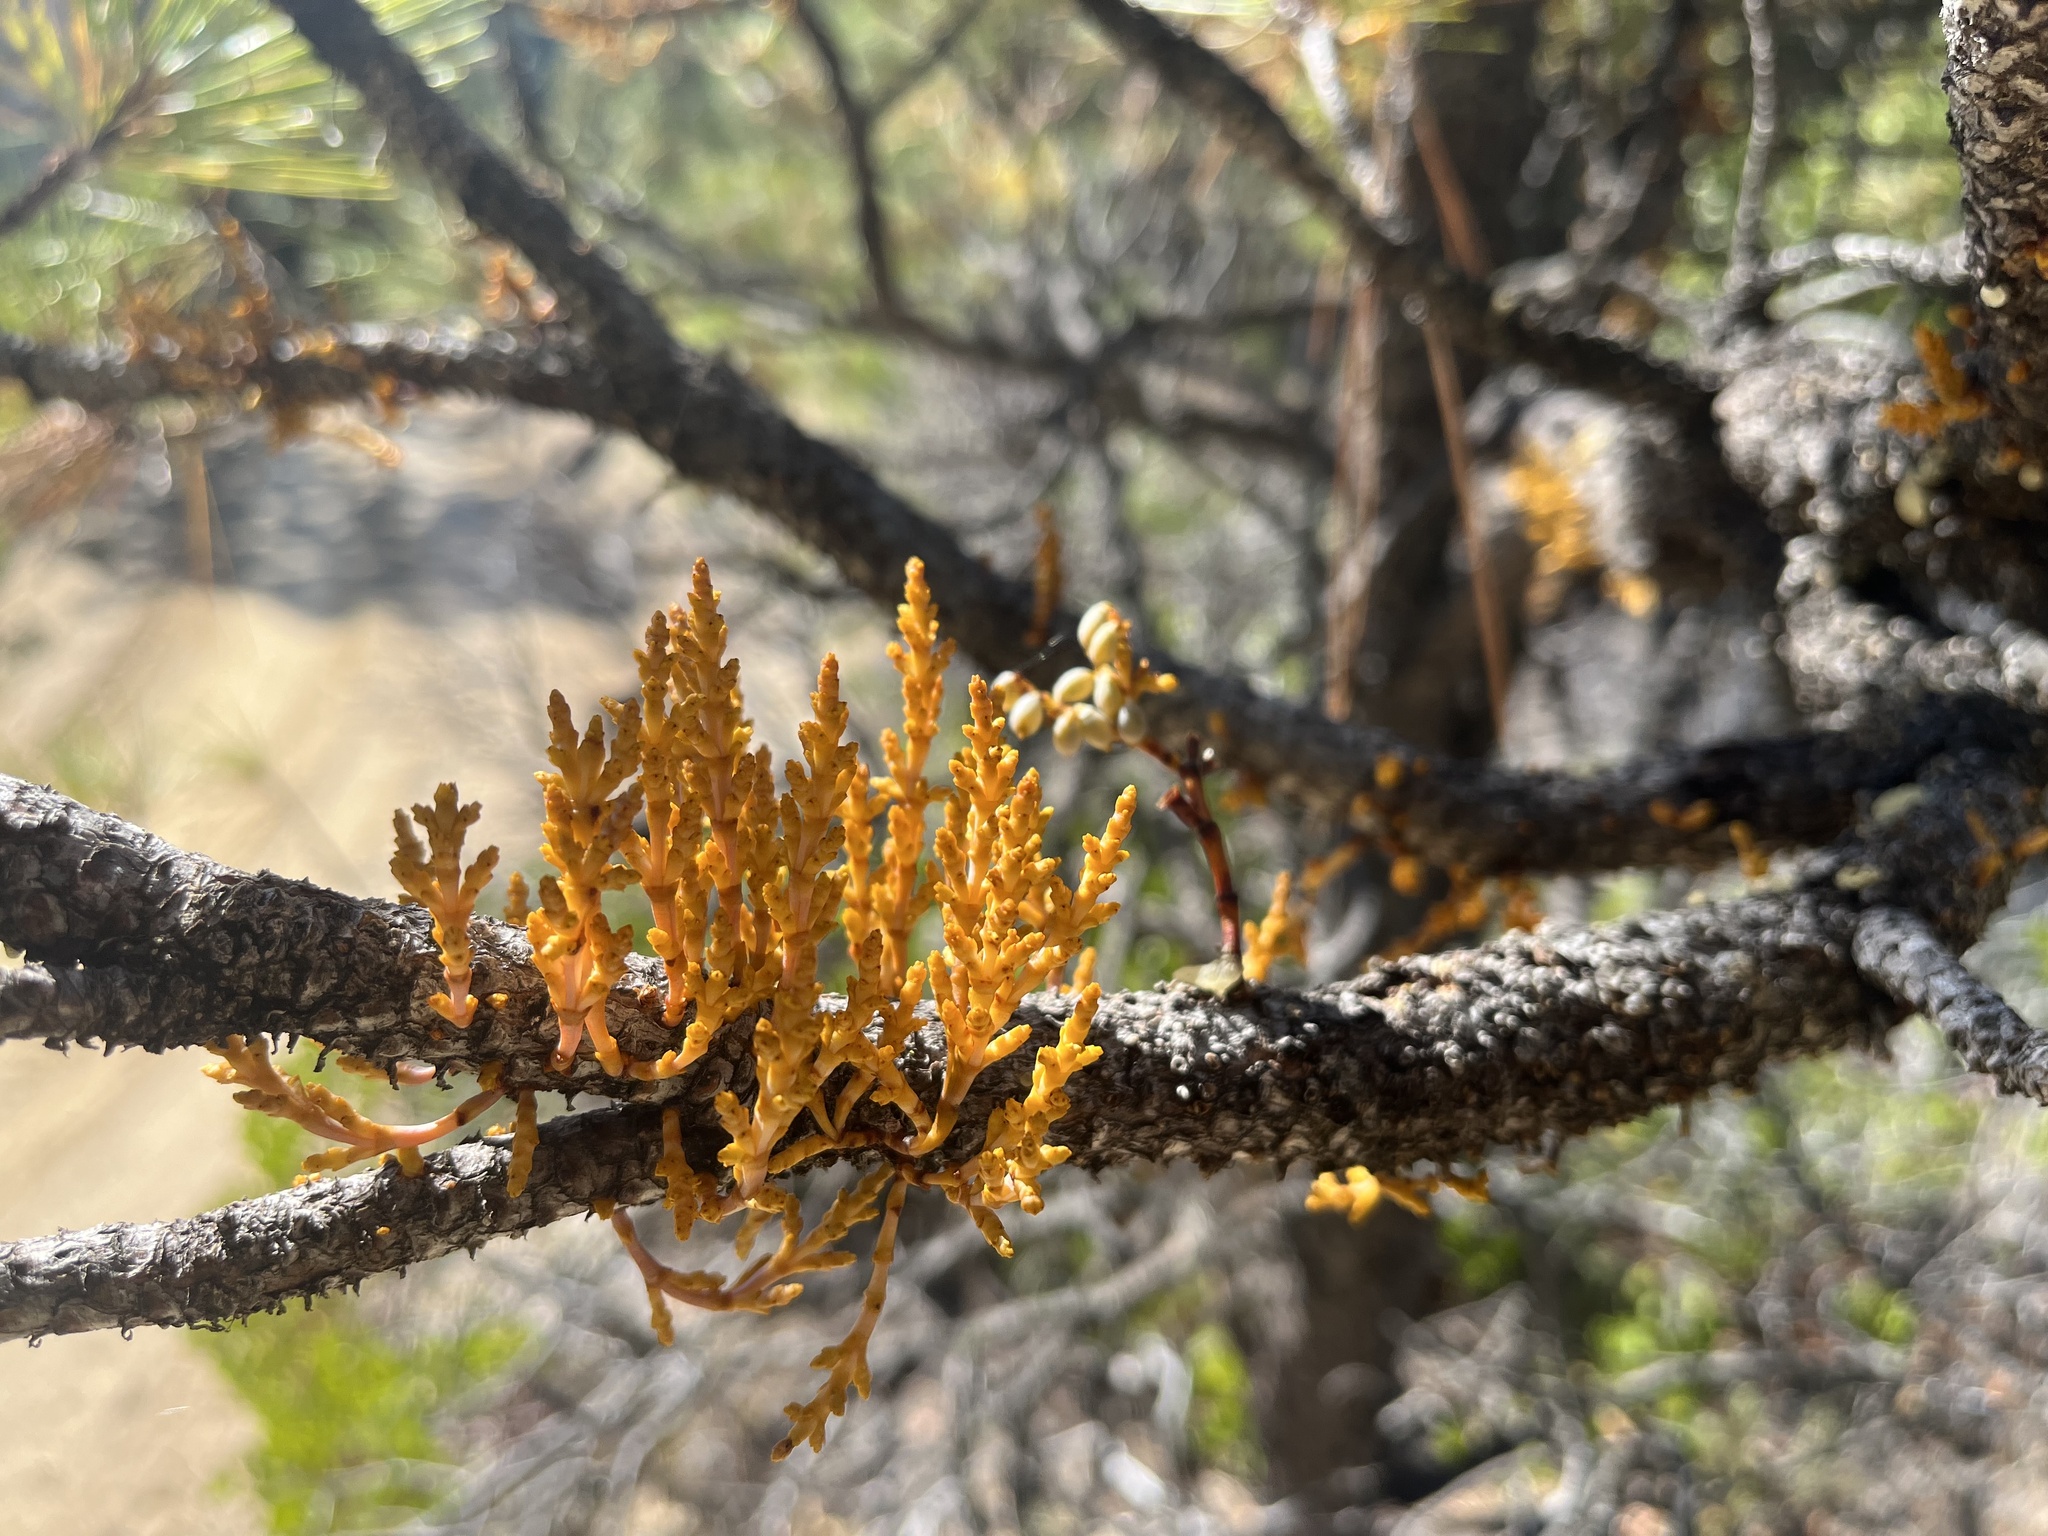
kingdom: Plantae
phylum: Tracheophyta
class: Magnoliopsida
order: Santalales
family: Viscaceae
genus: Arceuthobium
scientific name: Arceuthobium campylopodum
